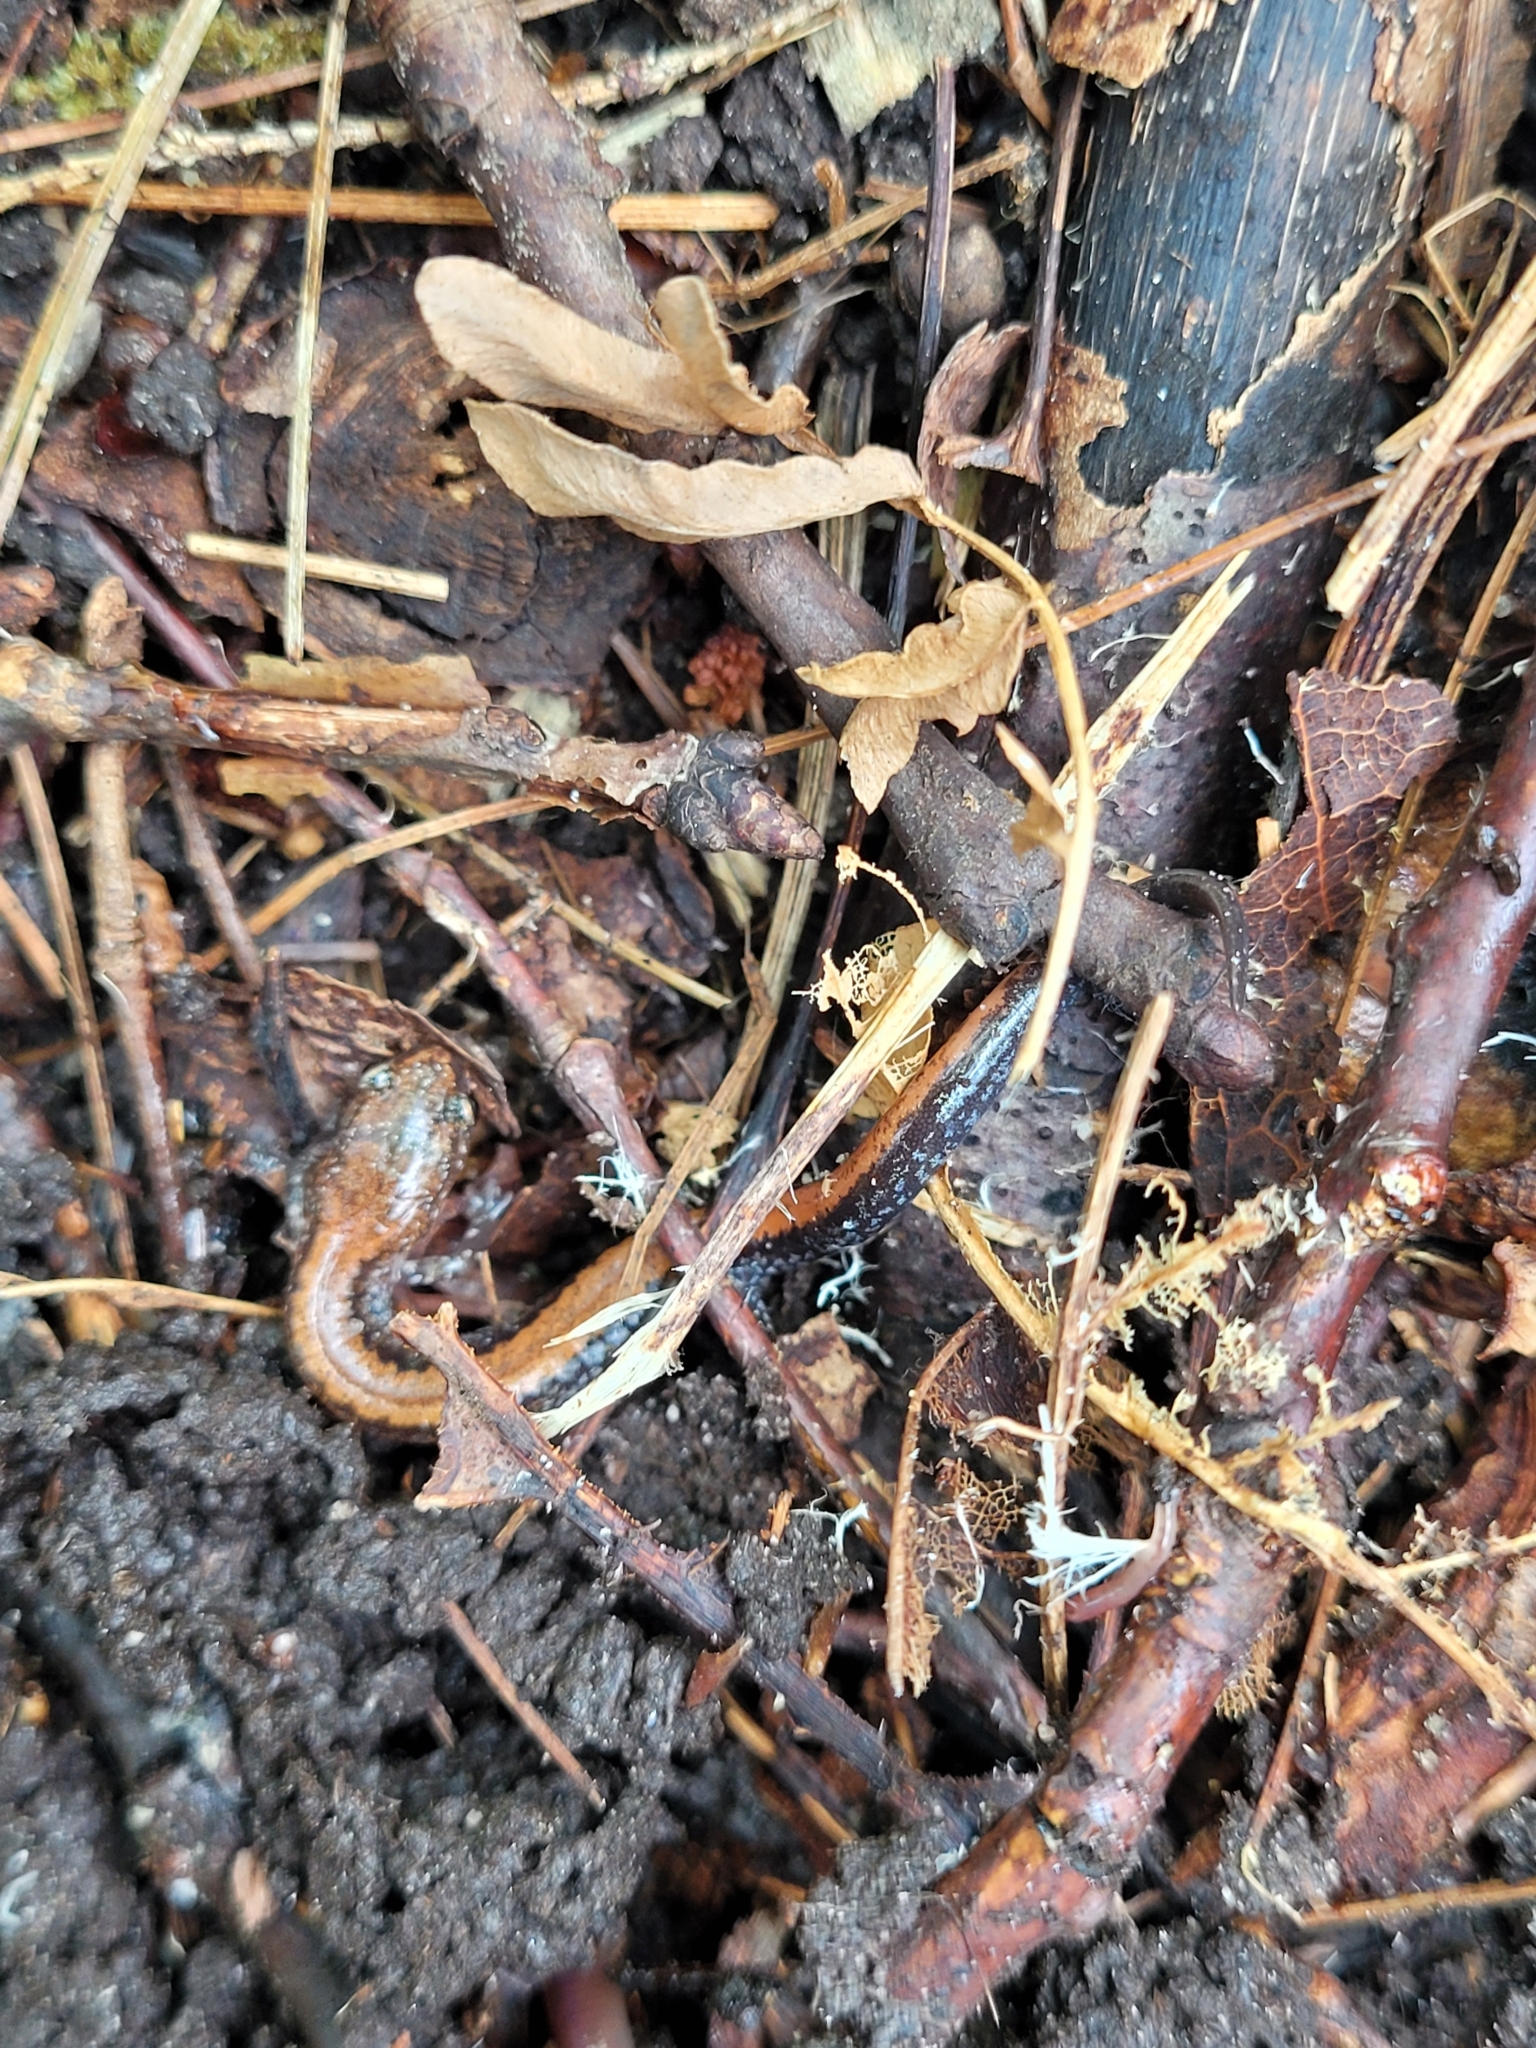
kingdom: Animalia
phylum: Chordata
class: Amphibia
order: Caudata
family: Plethodontidae
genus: Plethodon
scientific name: Plethodon cinereus
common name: Redback salamander
